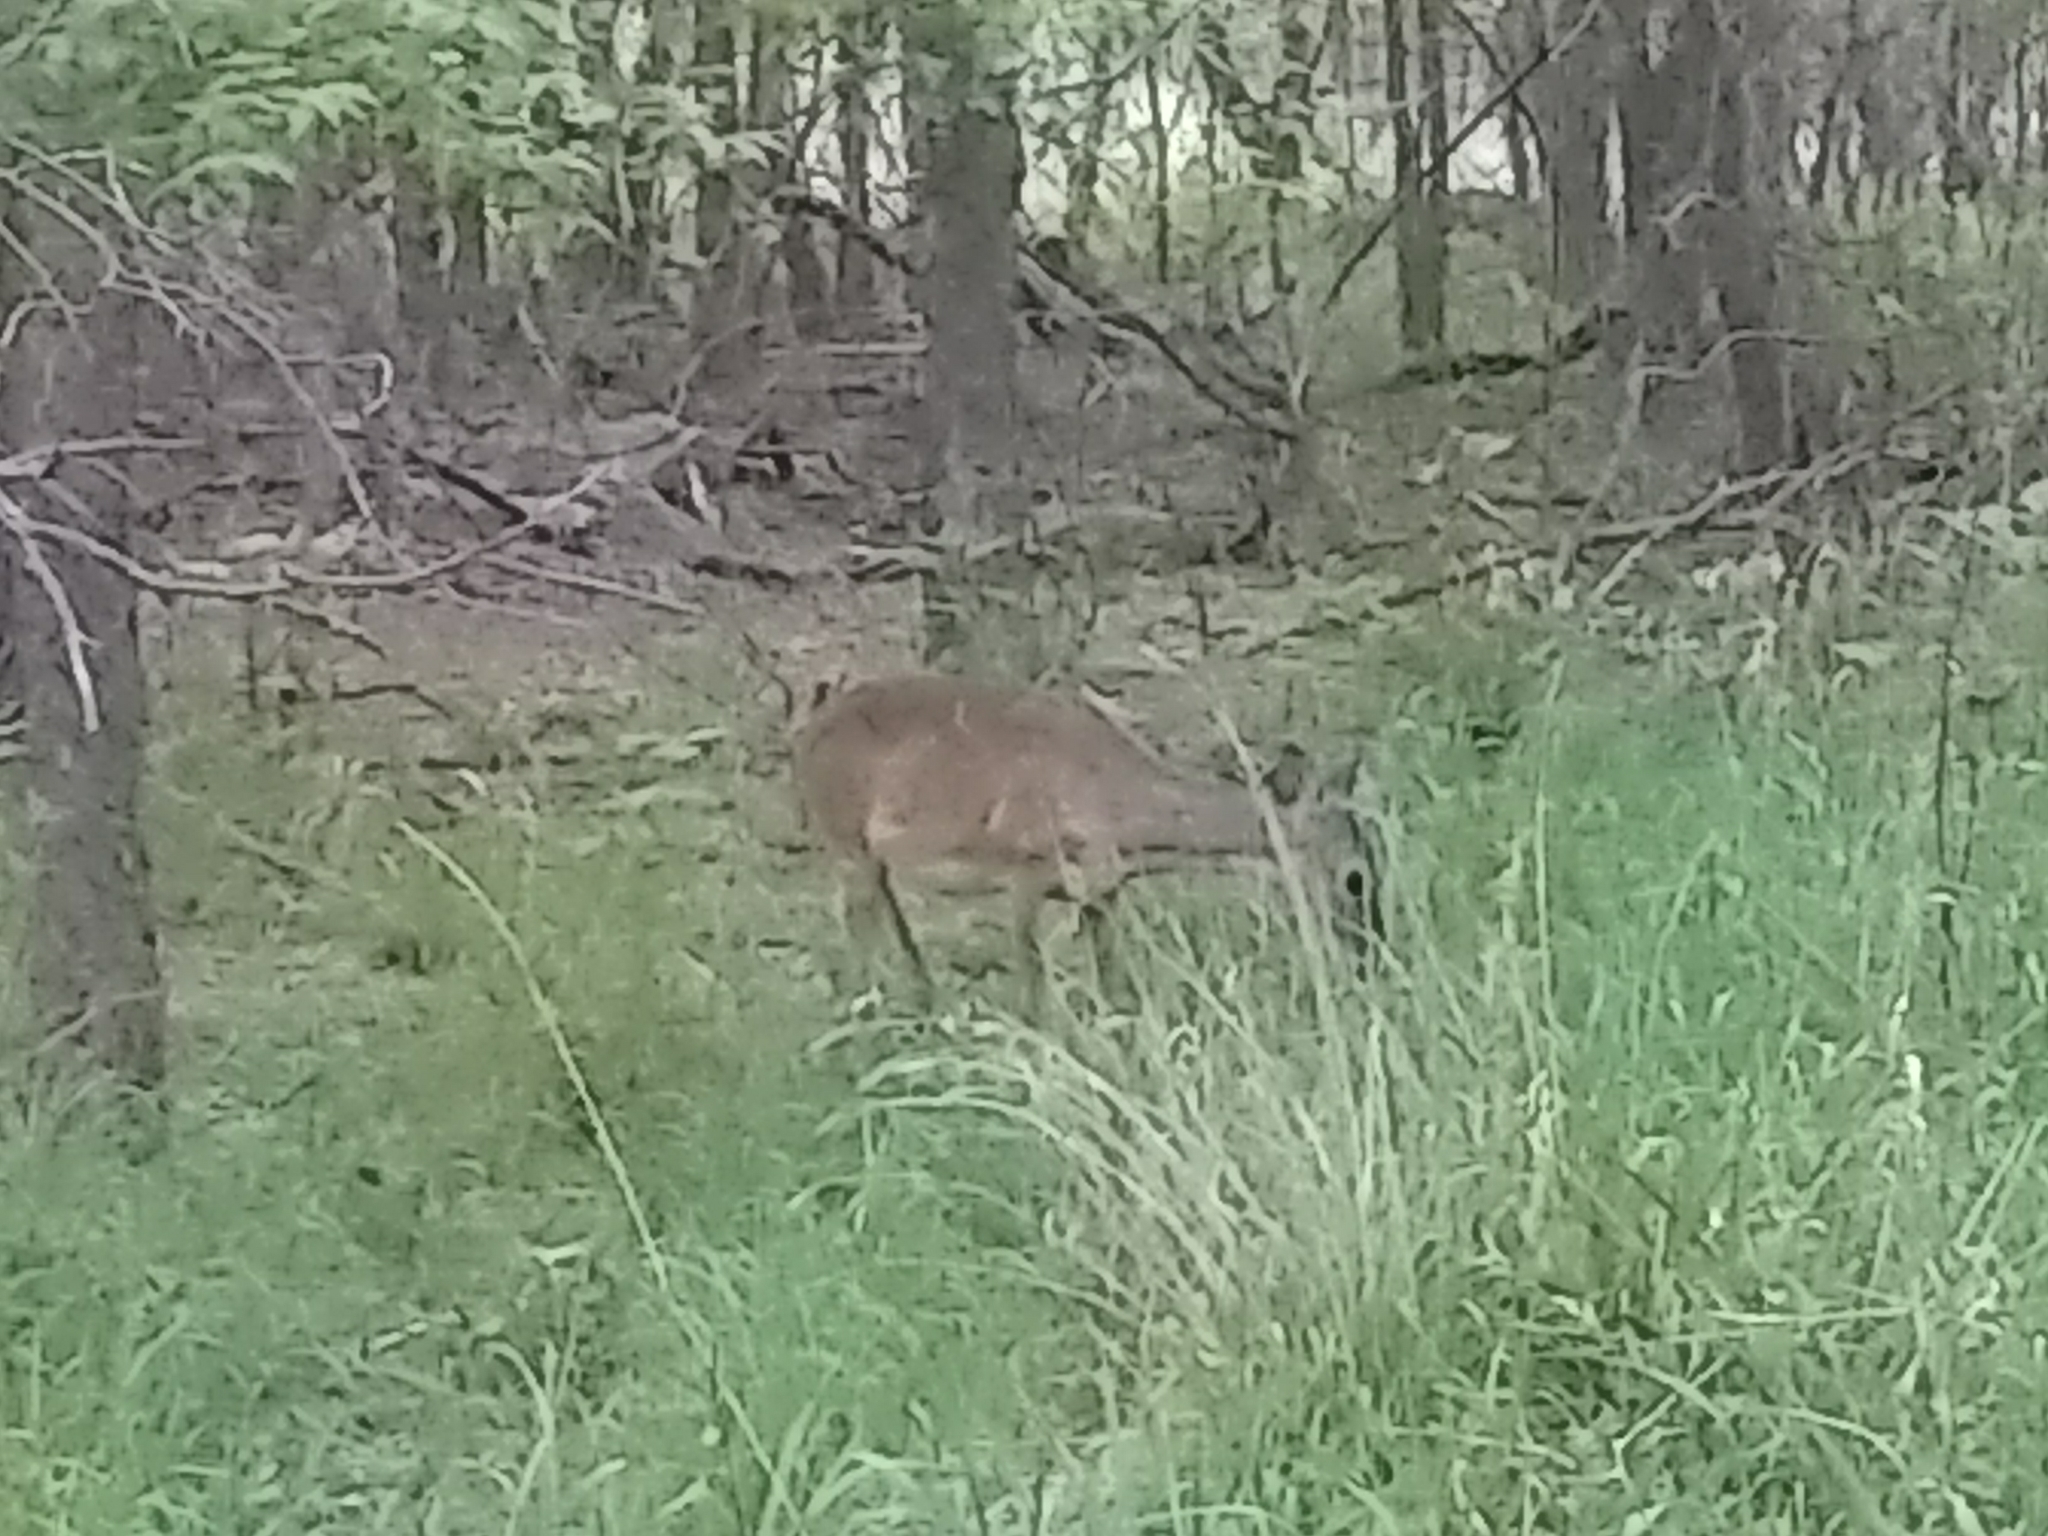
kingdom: Animalia
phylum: Chordata
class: Mammalia
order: Artiodactyla
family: Cervidae
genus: Odocoileus
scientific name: Odocoileus virginianus
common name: White-tailed deer
